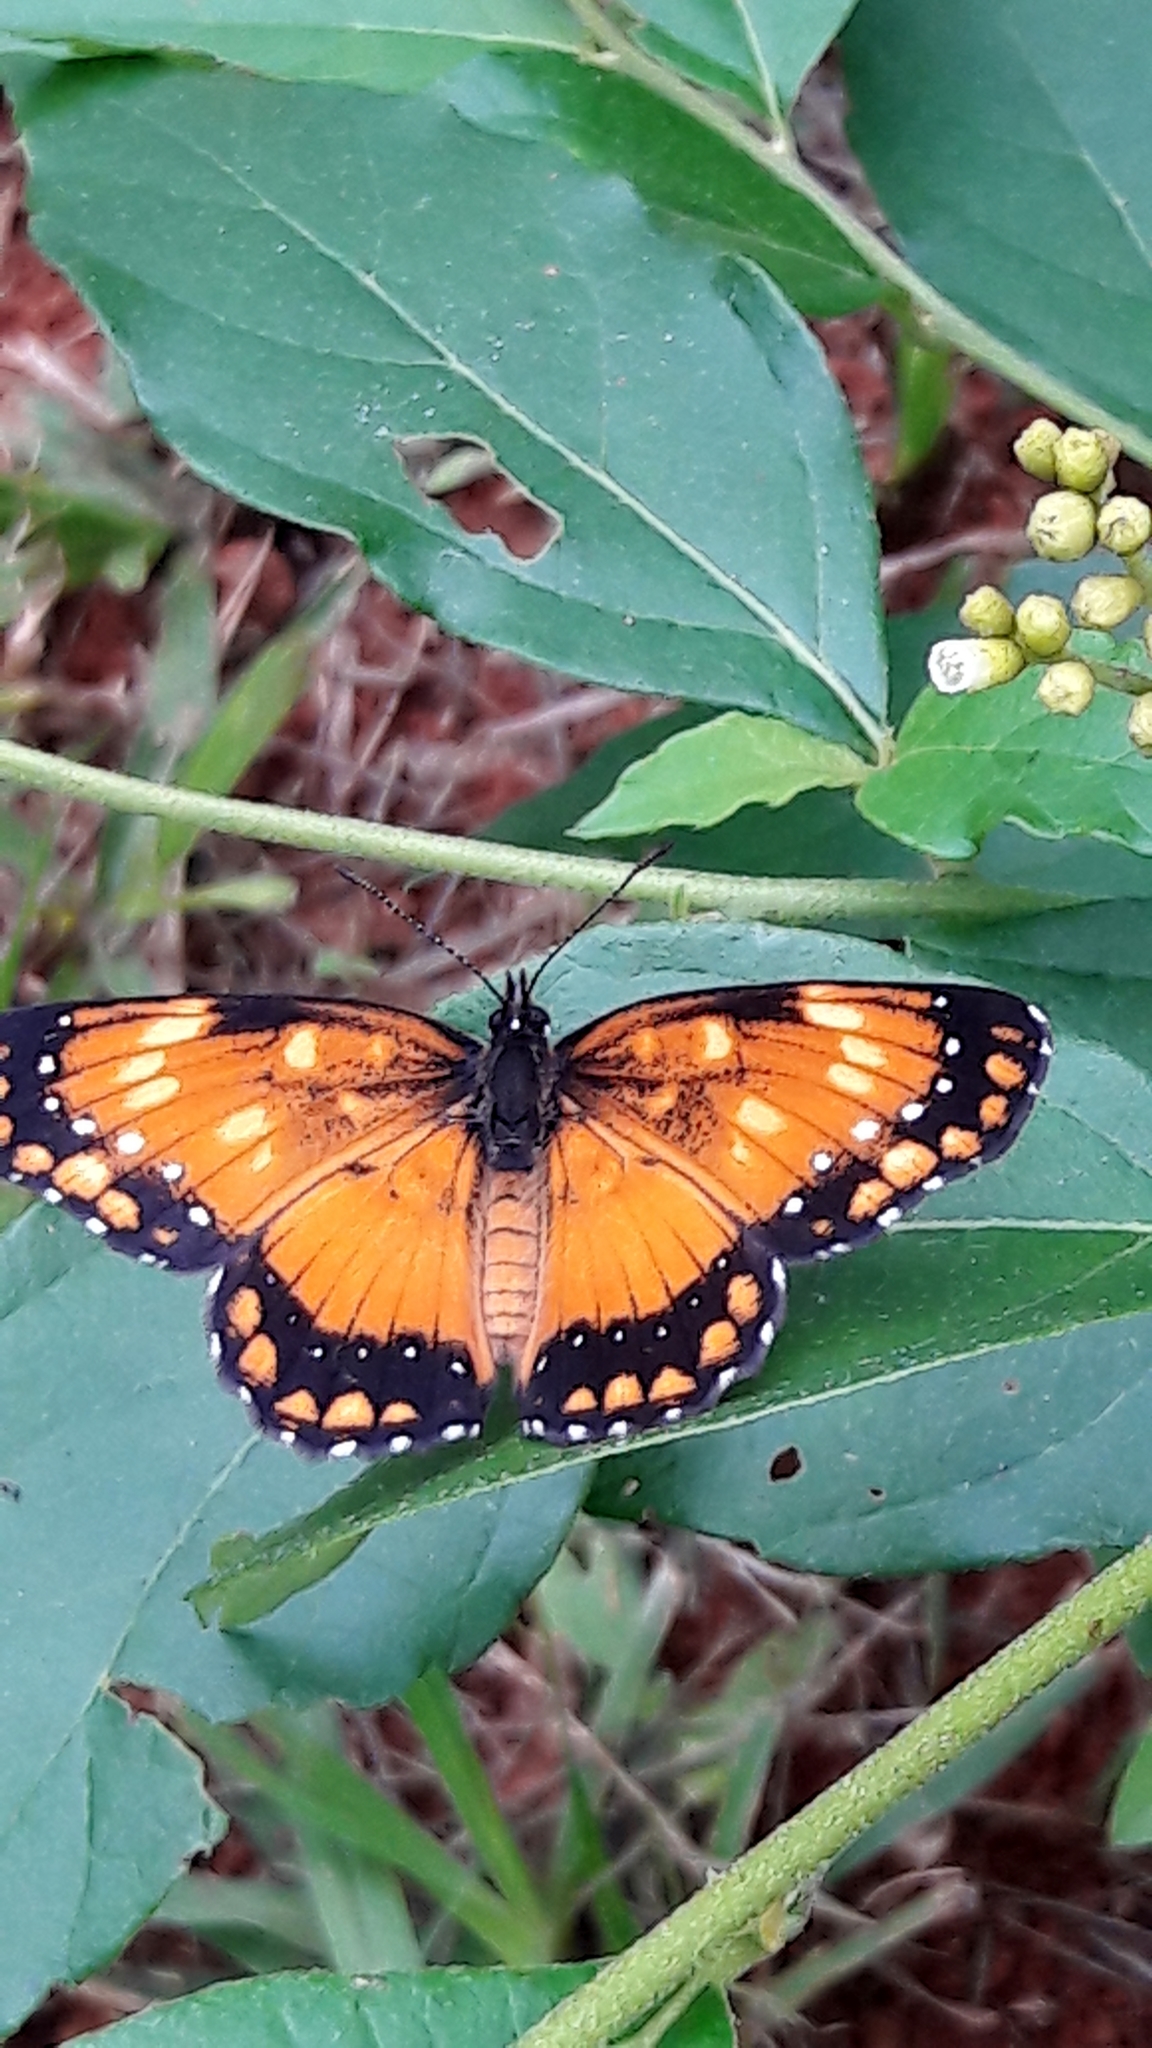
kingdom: Animalia
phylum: Arthropoda
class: Insecta
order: Lepidoptera
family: Nymphalidae
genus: Chlosyne
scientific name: Chlosyne lacinia
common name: Bordered patch
